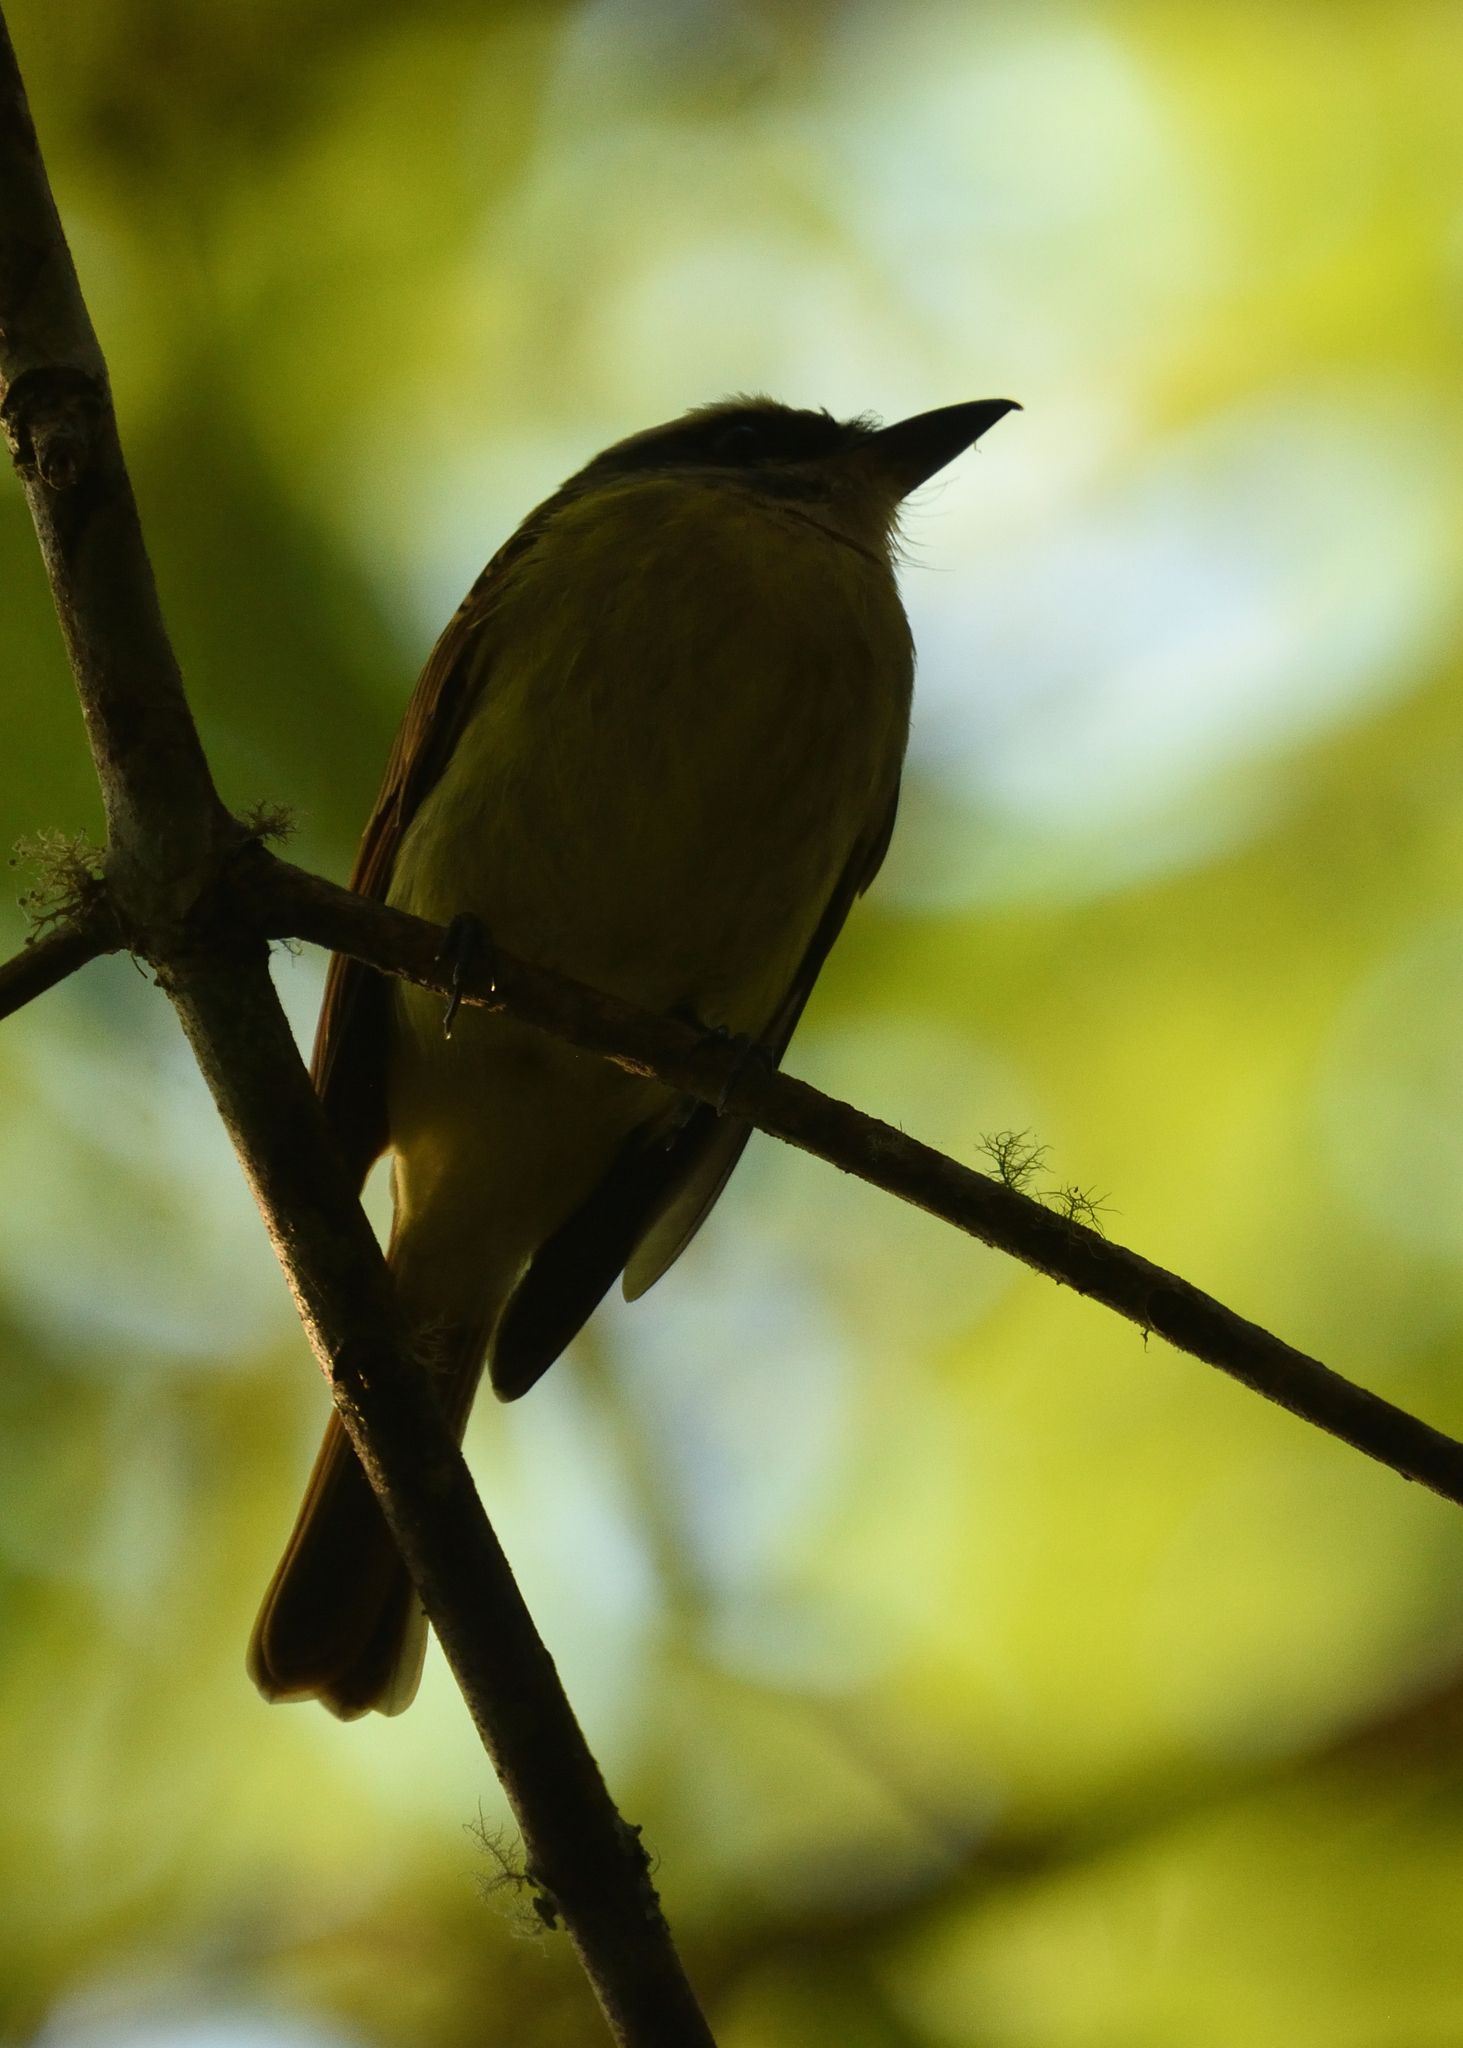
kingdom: Animalia
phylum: Chordata
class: Aves
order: Passeriformes
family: Tyrannidae
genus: Myiodynastes
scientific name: Myiodynastes hemichrysus
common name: Golden-bellied flycatcher
